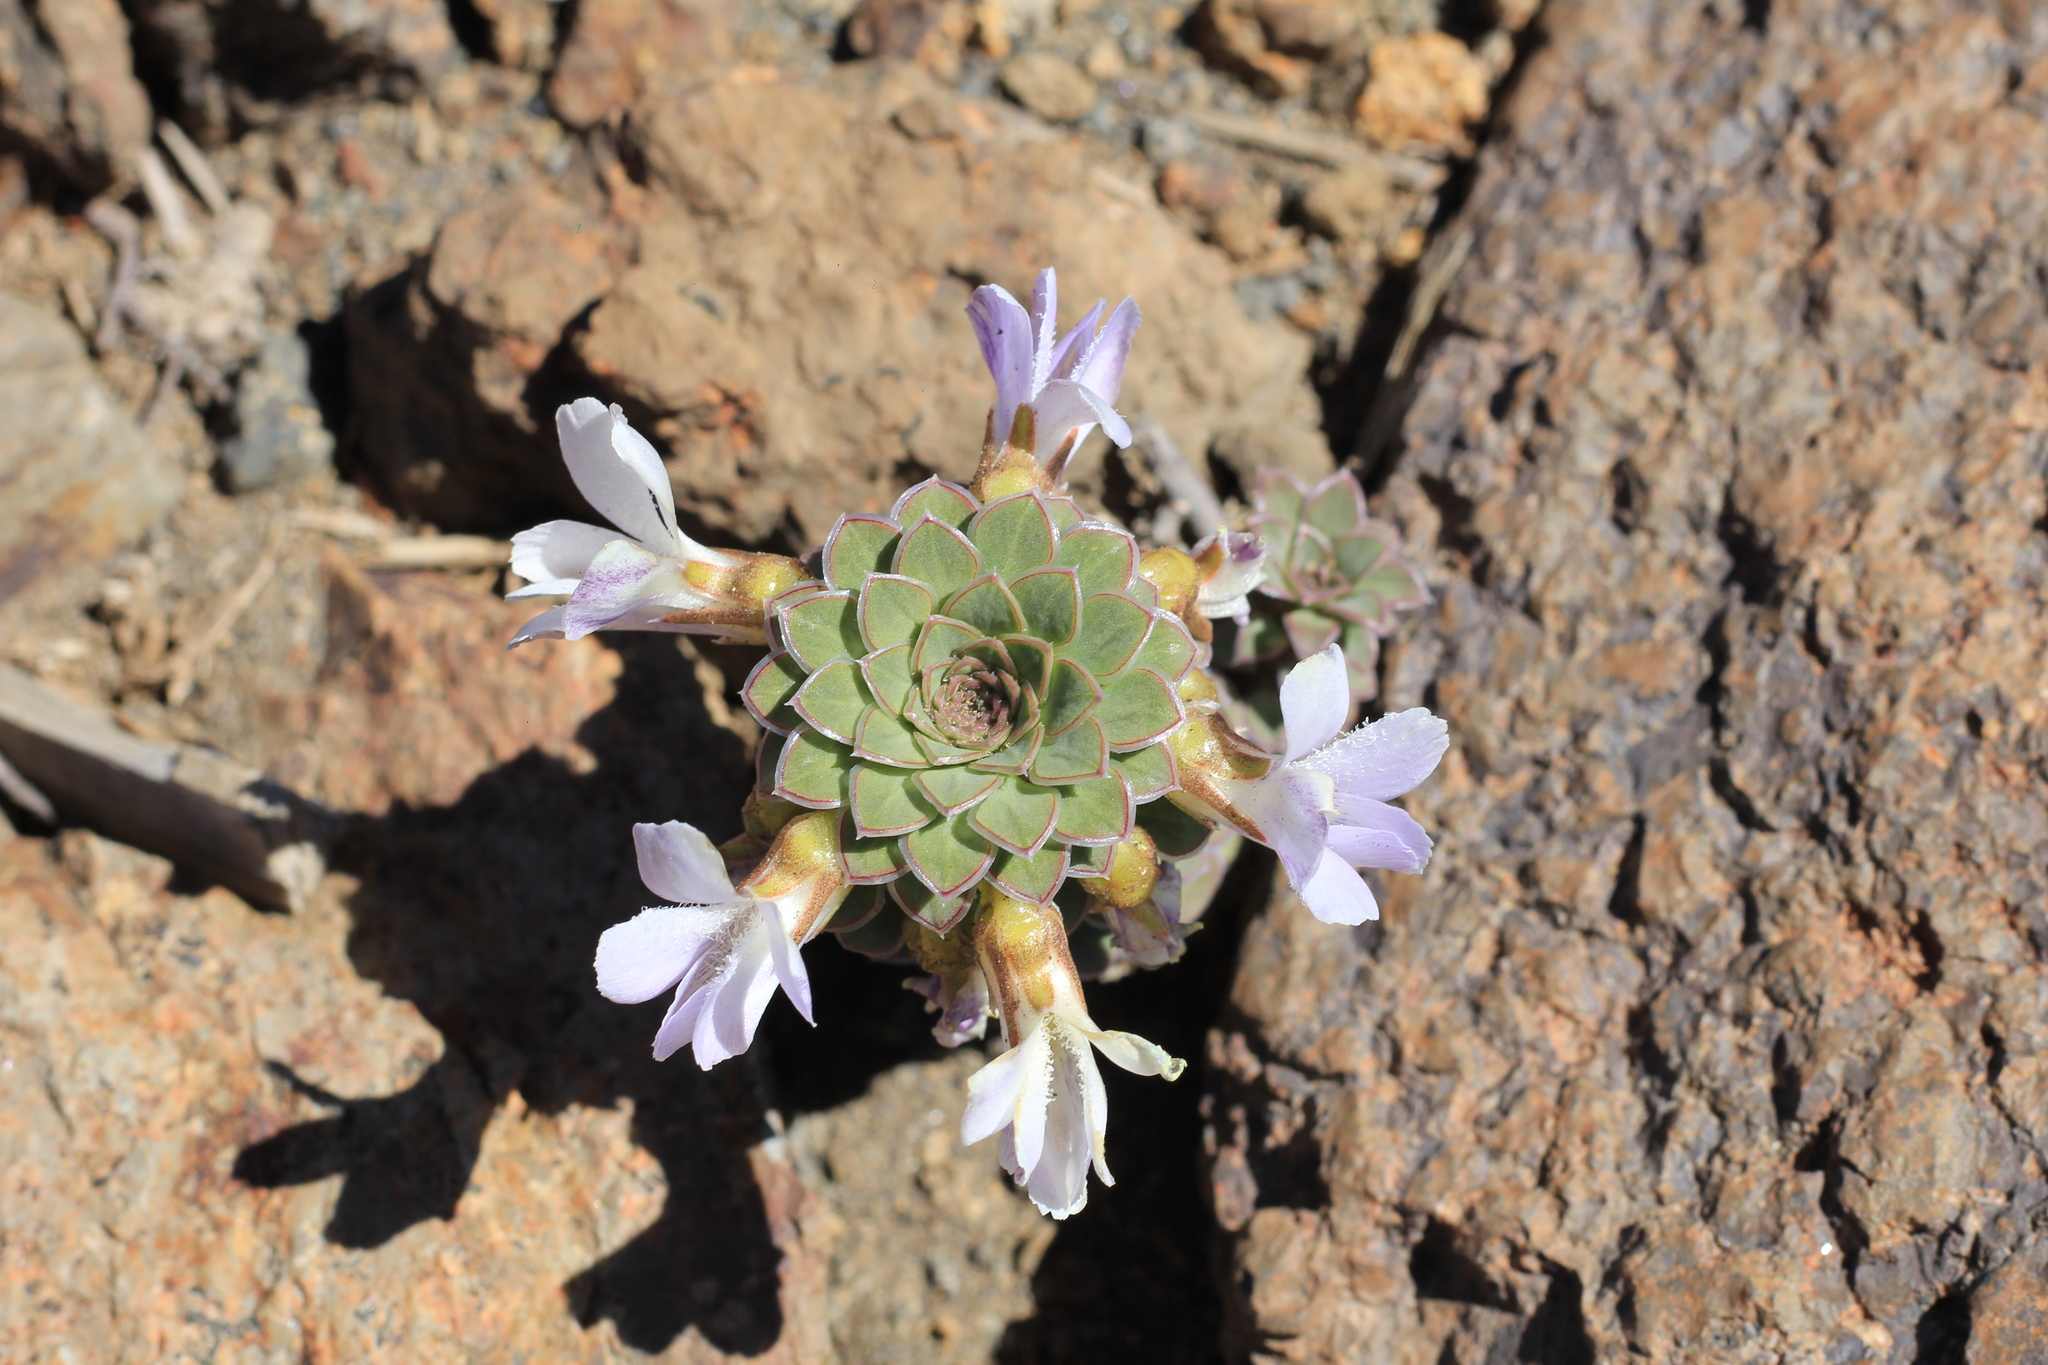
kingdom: Plantae
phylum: Tracheophyta
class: Magnoliopsida
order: Malpighiales
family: Violaceae
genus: Viola
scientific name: Viola blaxlandiae
